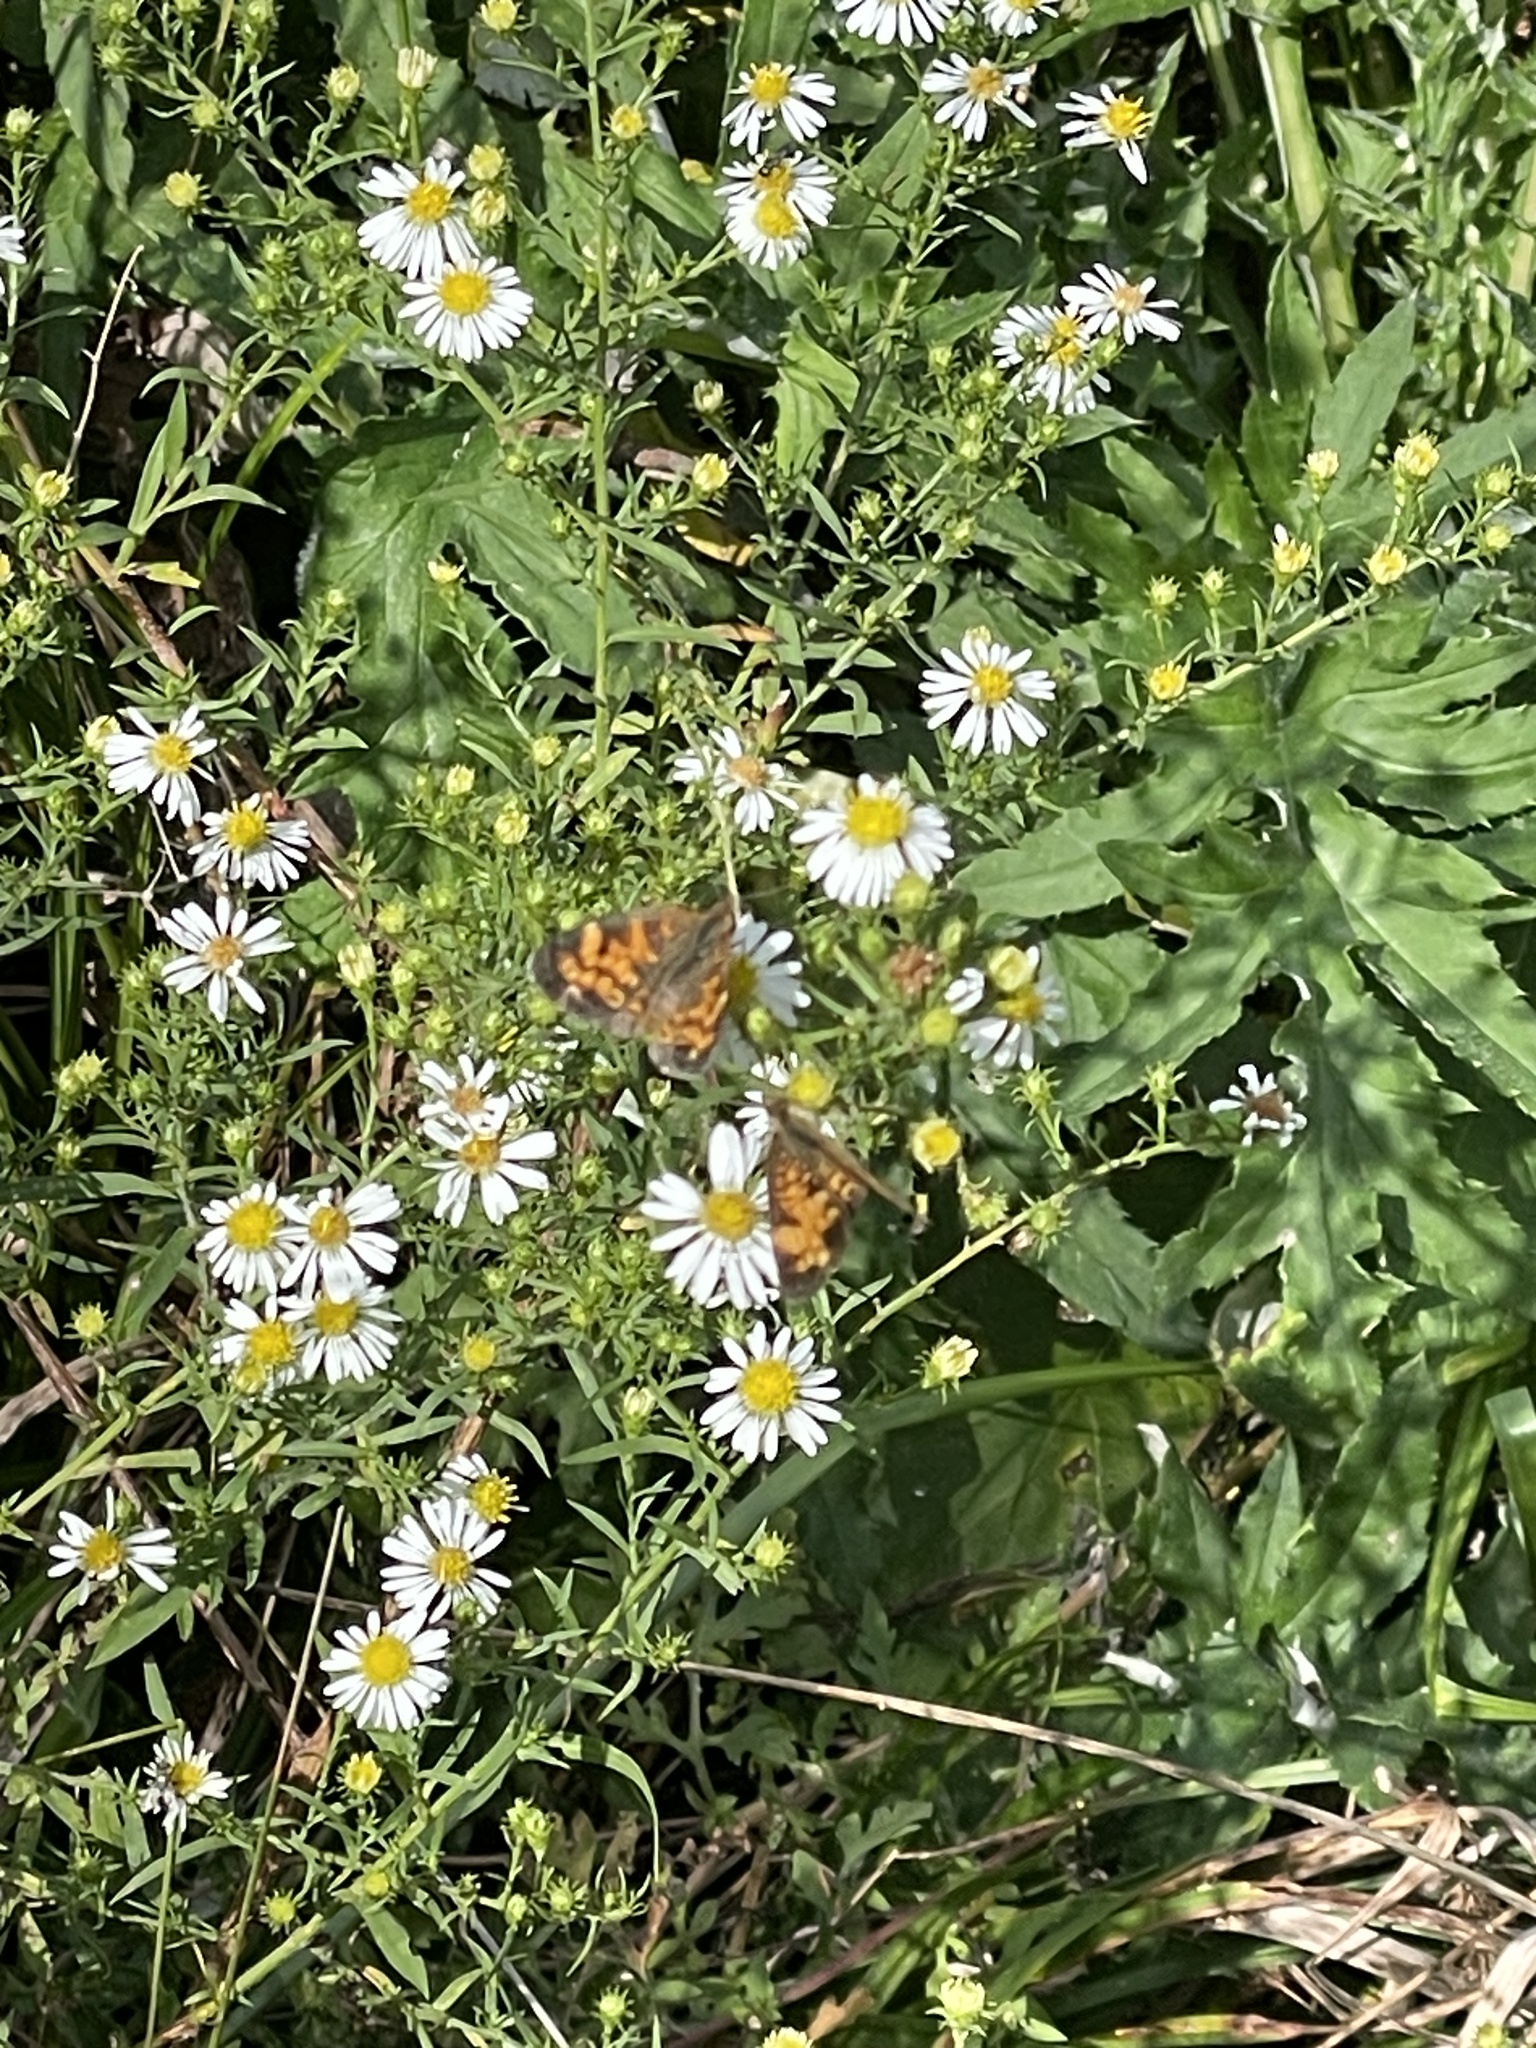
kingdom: Animalia
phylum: Arthropoda
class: Insecta
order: Lepidoptera
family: Nymphalidae
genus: Phyciodes
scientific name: Phyciodes tharos
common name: Pearl crescent
